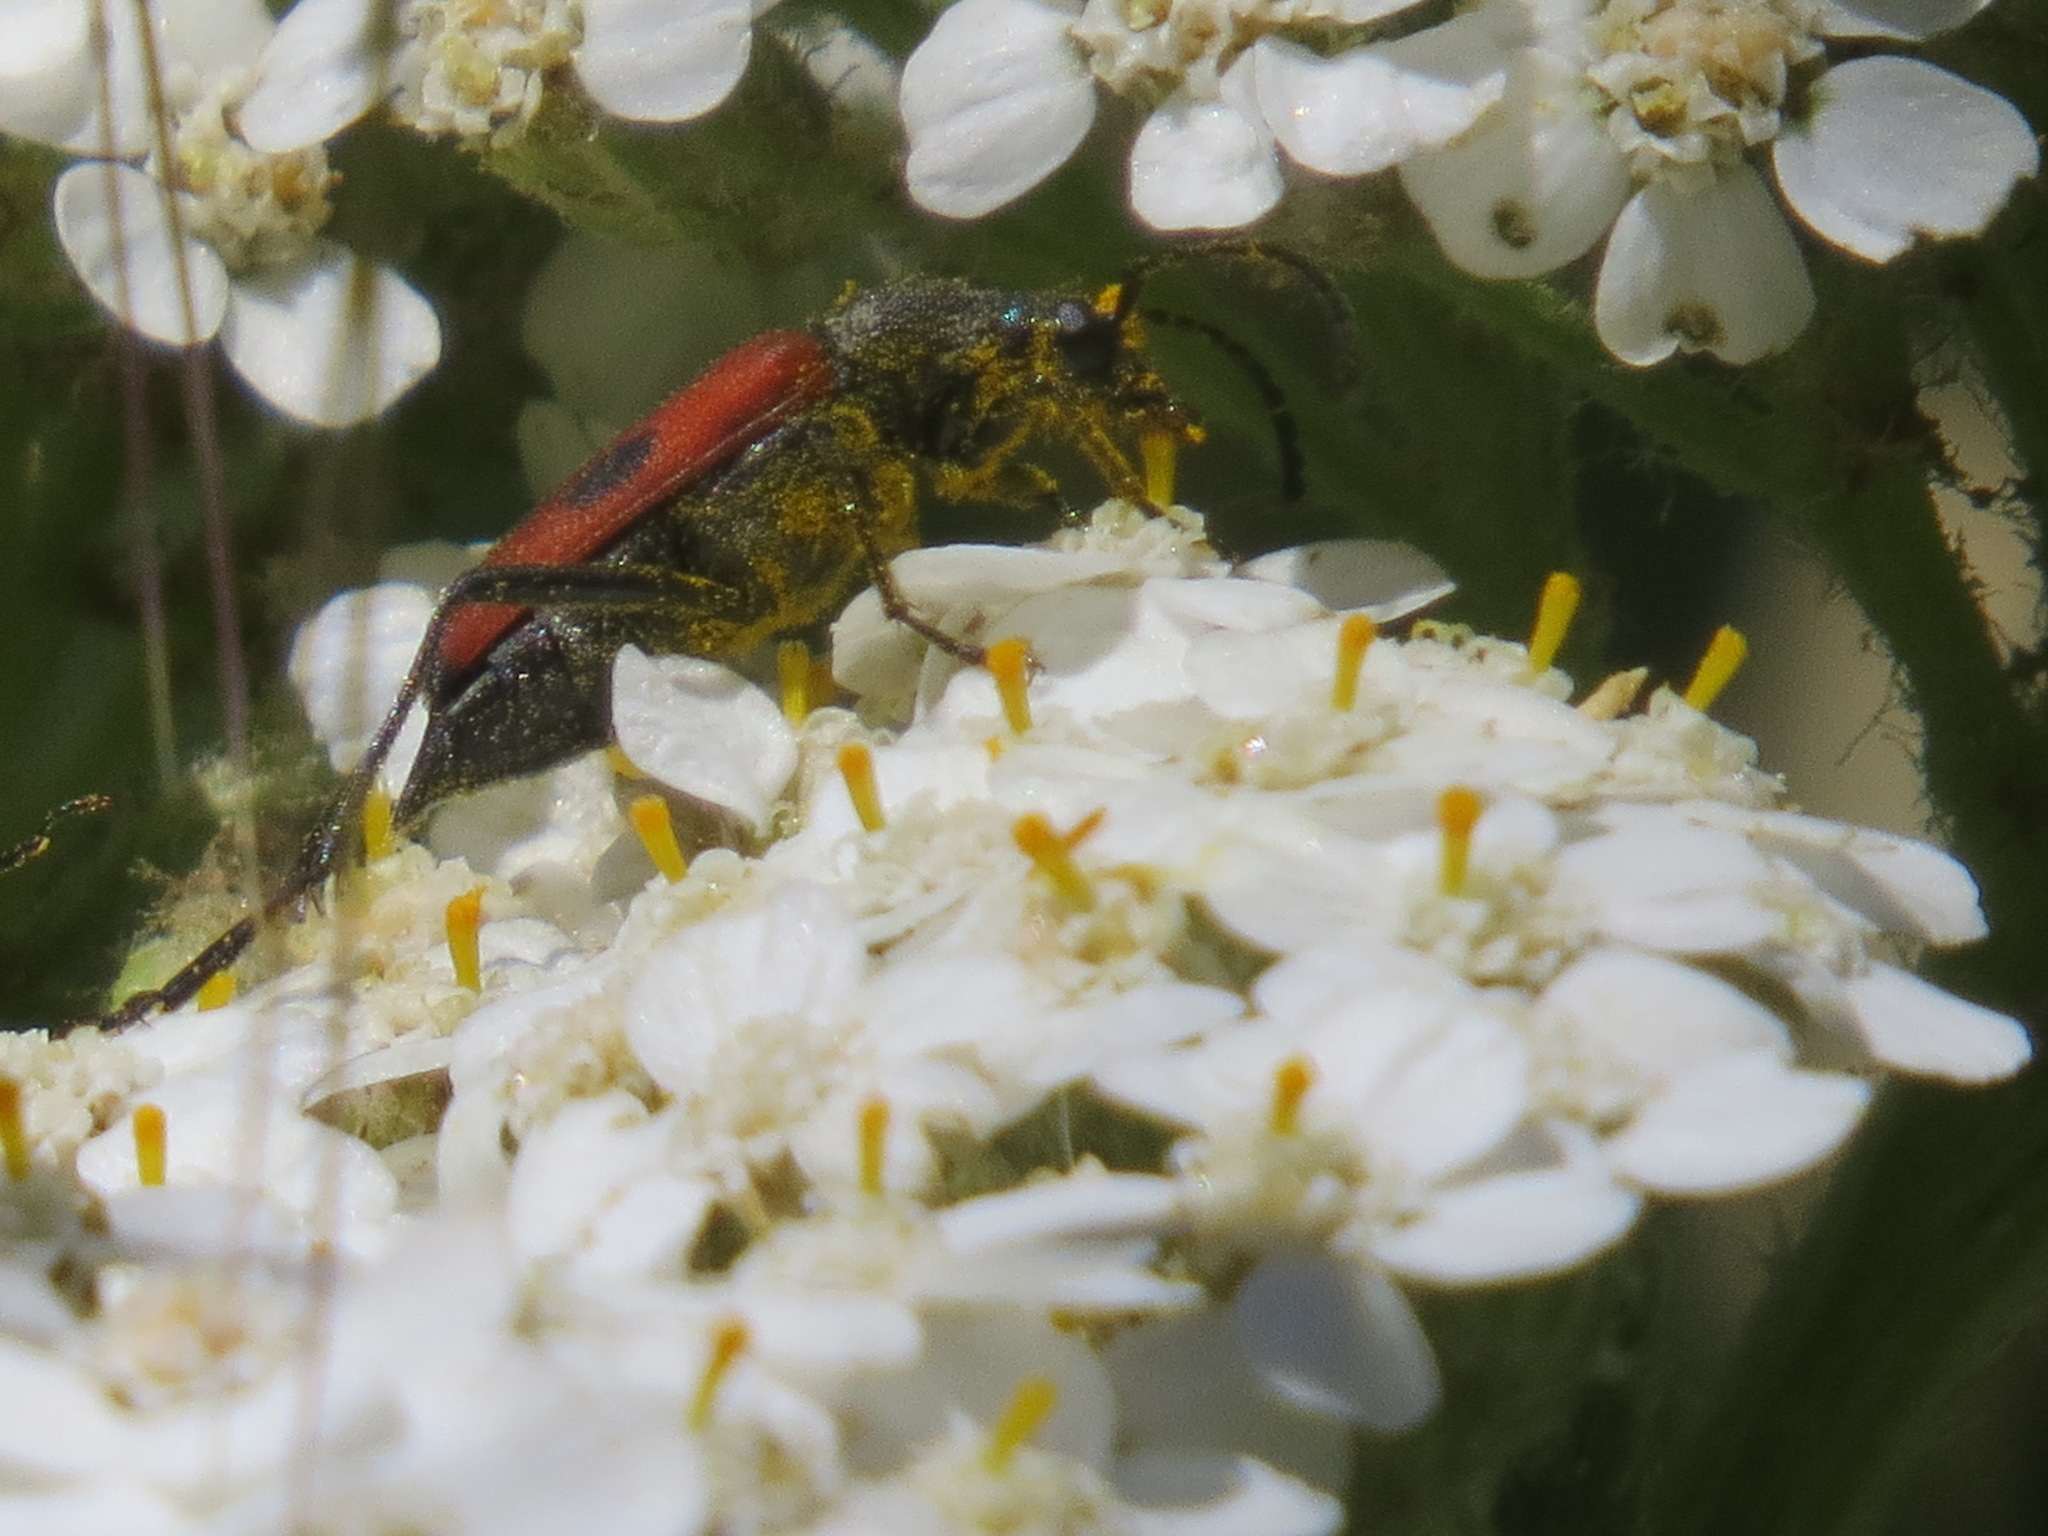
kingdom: Animalia
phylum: Arthropoda
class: Insecta
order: Coleoptera
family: Cerambycidae
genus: Anastrangalia
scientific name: Anastrangalia laetifica
